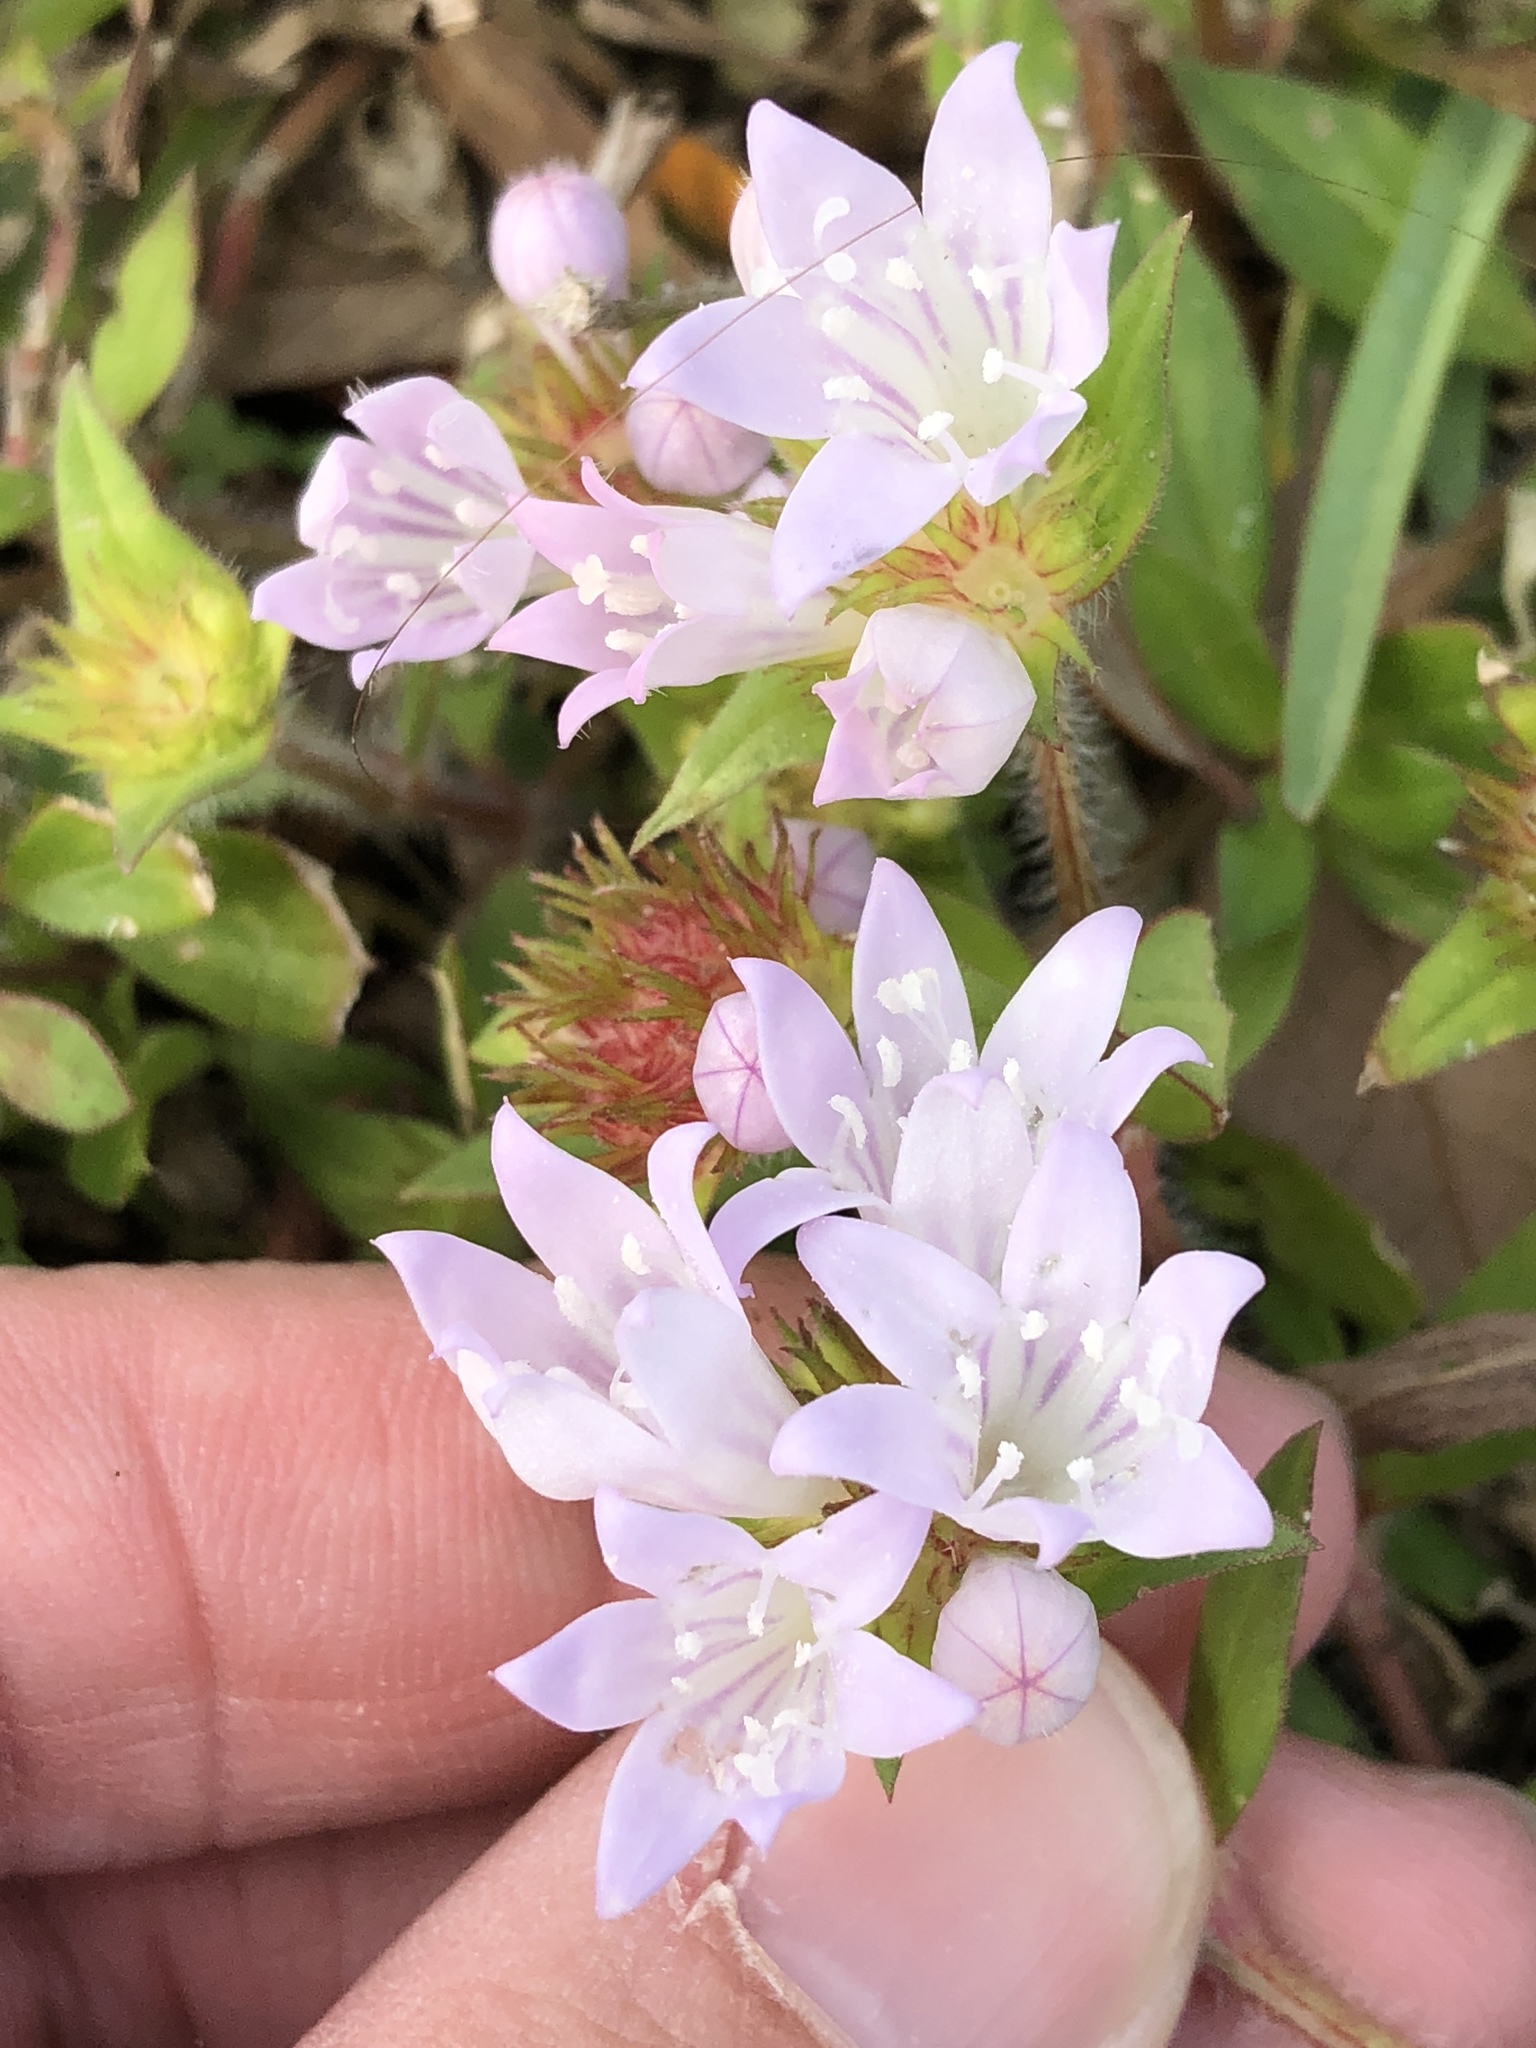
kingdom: Plantae
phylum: Tracheophyta
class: Magnoliopsida
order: Gentianales
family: Rubiaceae
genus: Richardia
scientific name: Richardia grandiflora
